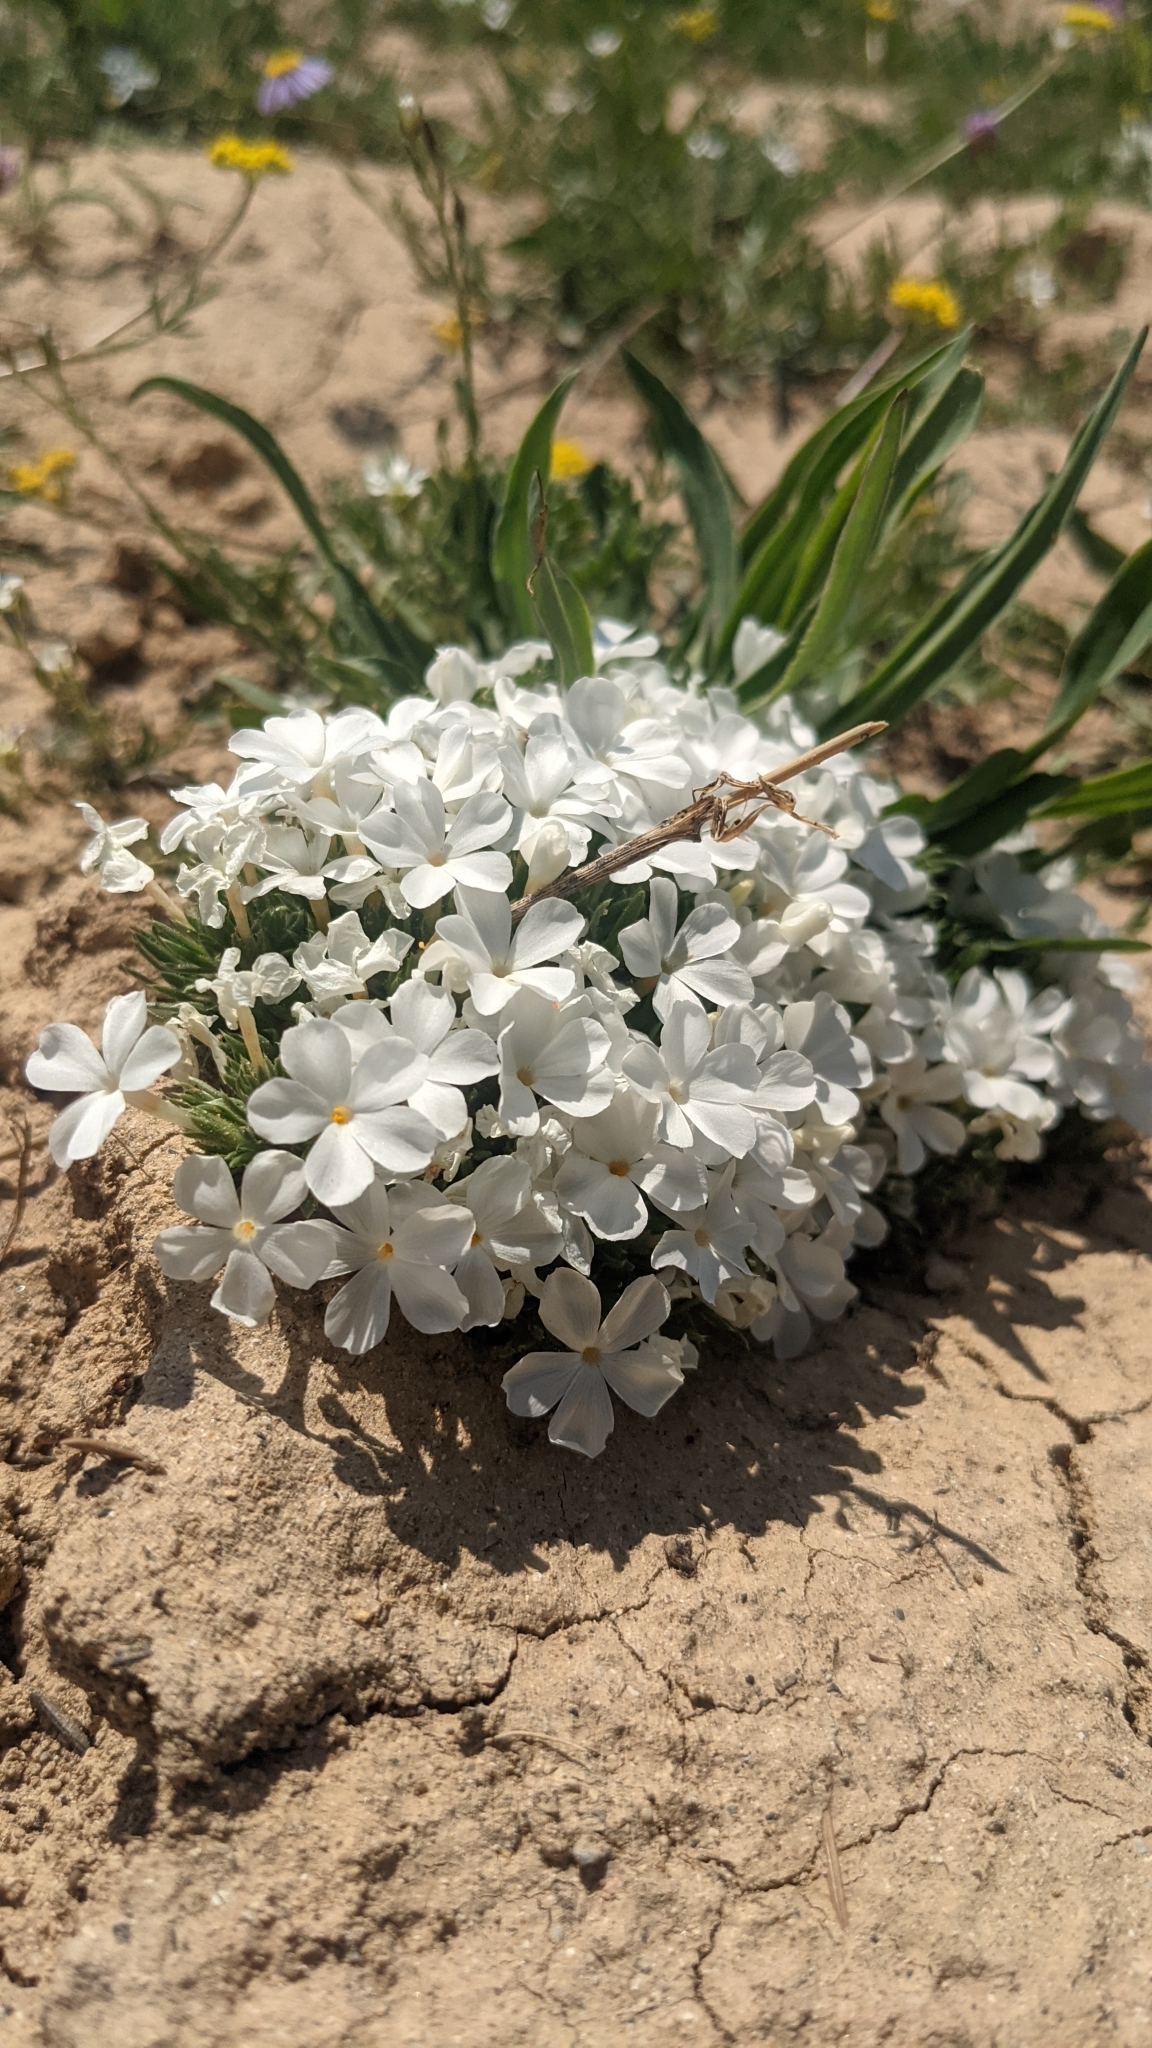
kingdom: Plantae
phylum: Tracheophyta
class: Magnoliopsida
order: Ericales
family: Polemoniaceae
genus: Phlox
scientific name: Phlox griseola
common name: Gray-leaf phlox
